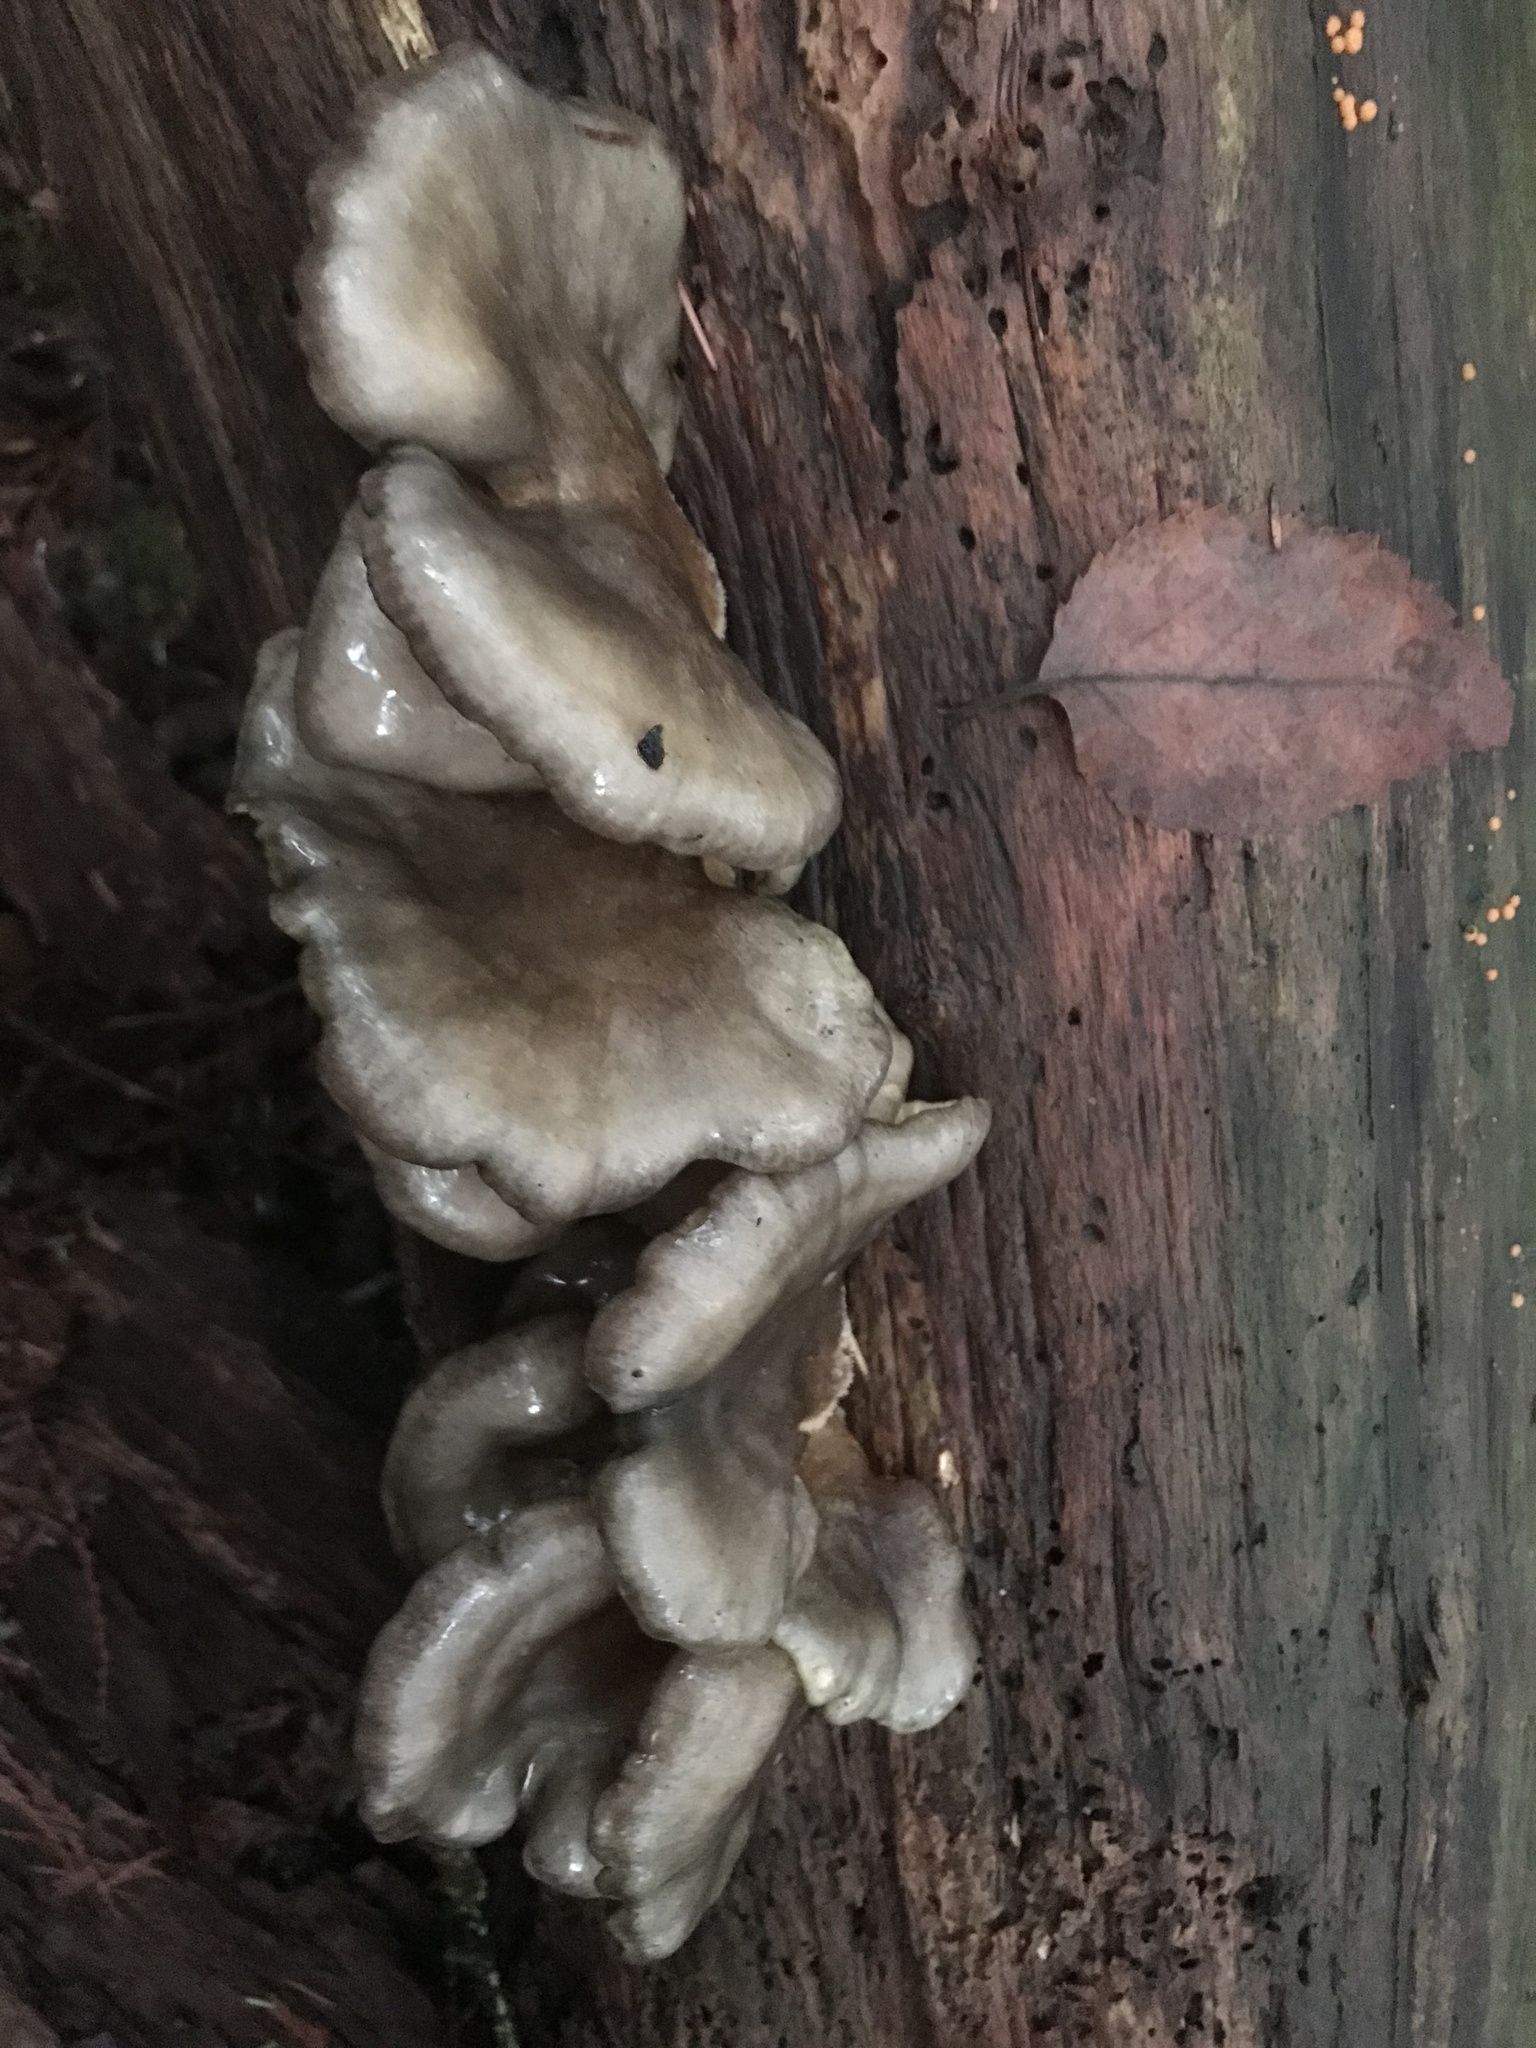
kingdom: Fungi
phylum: Basidiomycota
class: Agaricomycetes
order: Agaricales
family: Sarcomyxaceae
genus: Sarcomyxa
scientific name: Sarcomyxa serotina
